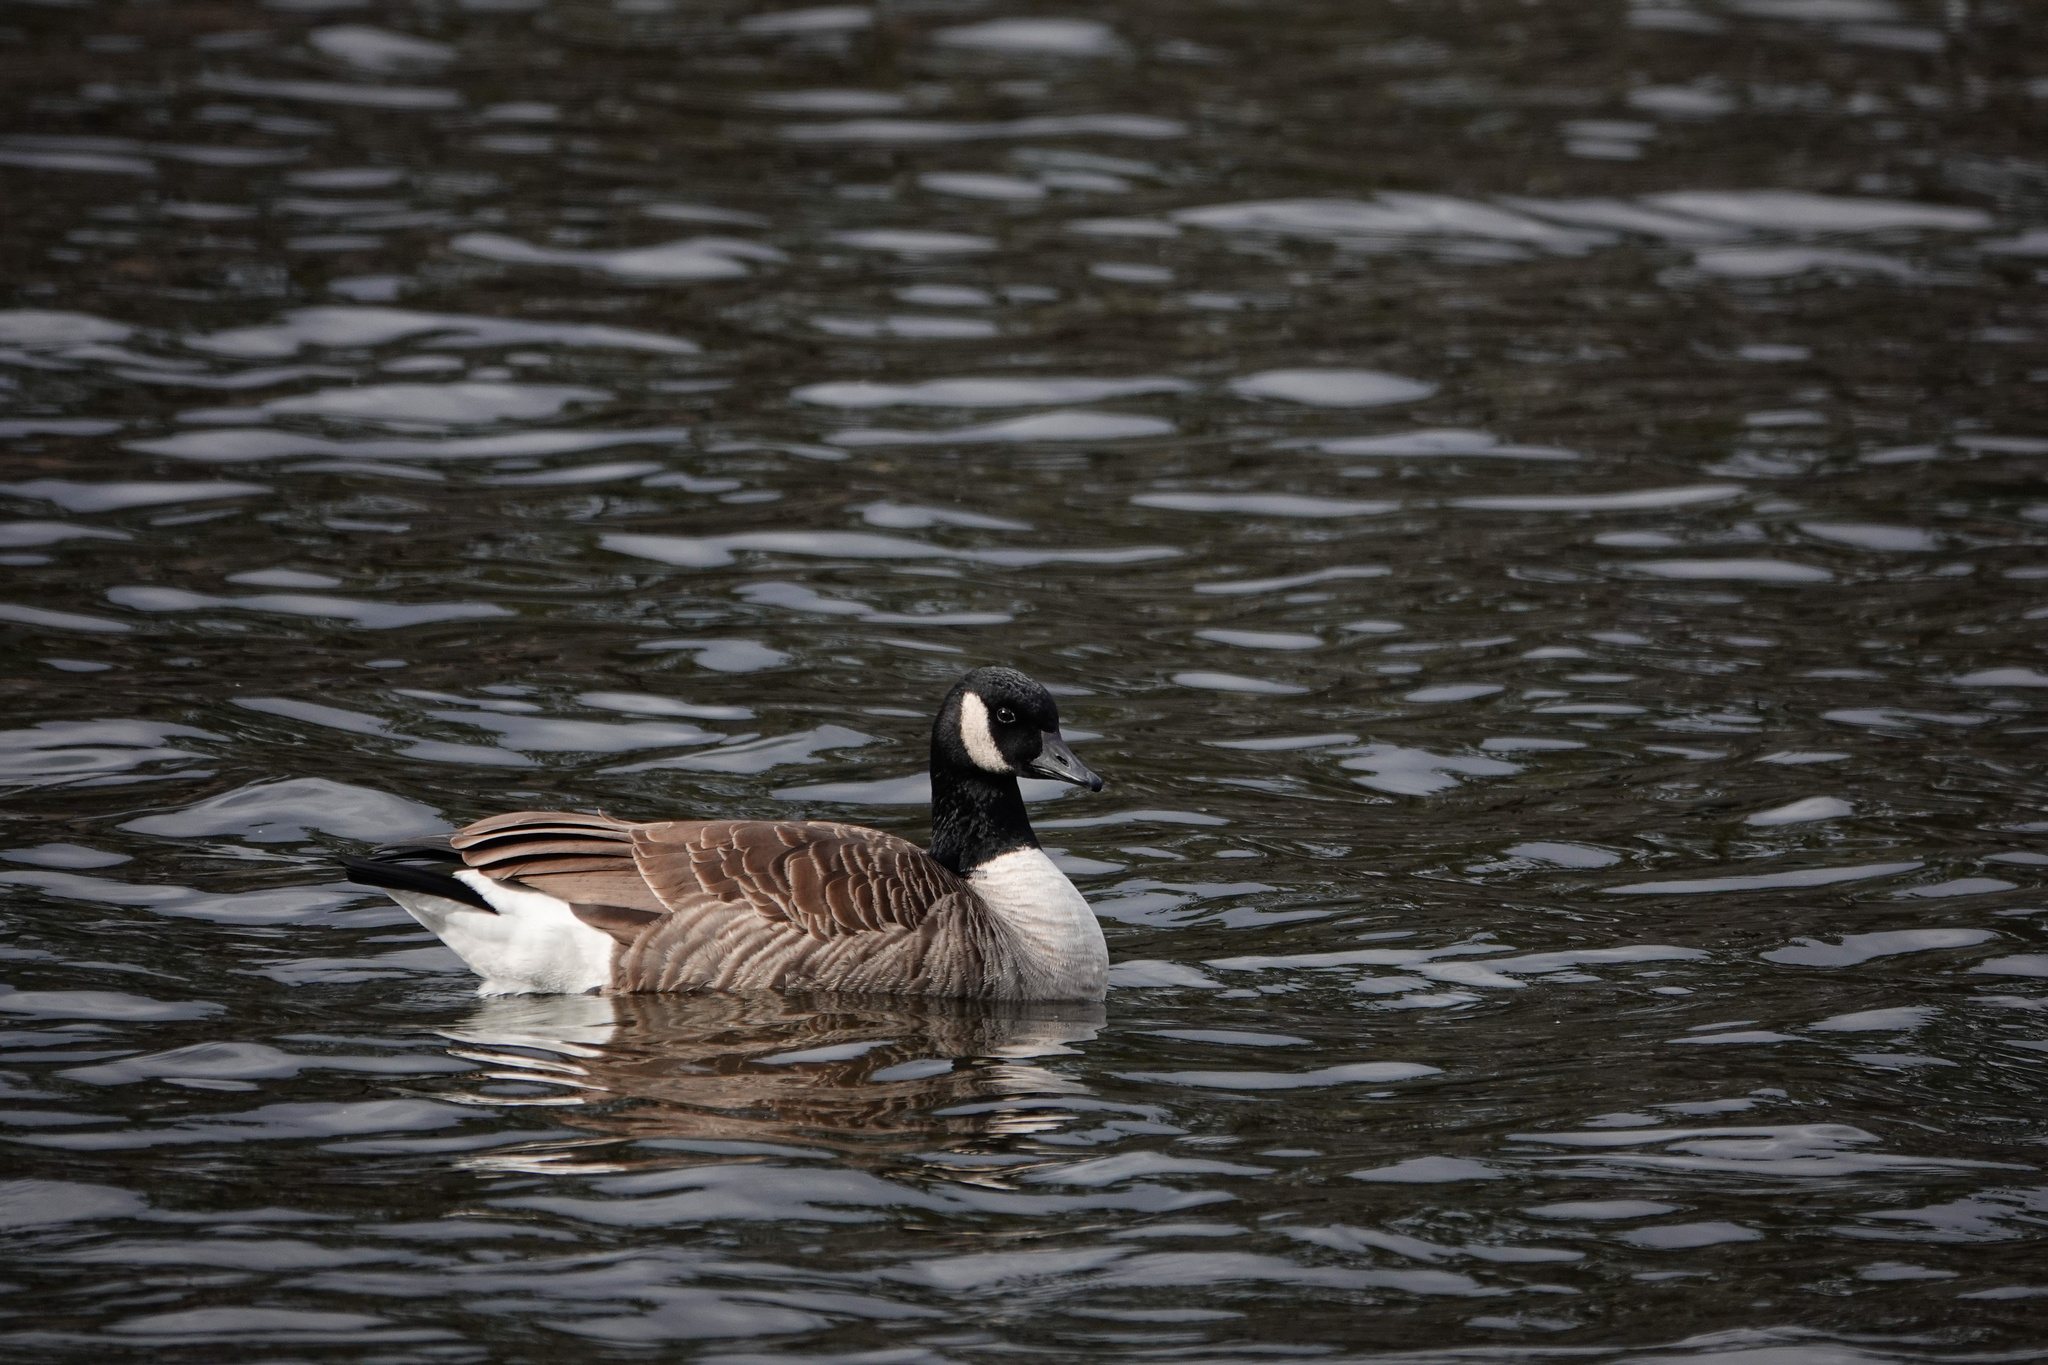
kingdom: Animalia
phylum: Chordata
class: Aves
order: Anseriformes
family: Anatidae
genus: Branta
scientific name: Branta canadensis
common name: Canada goose
